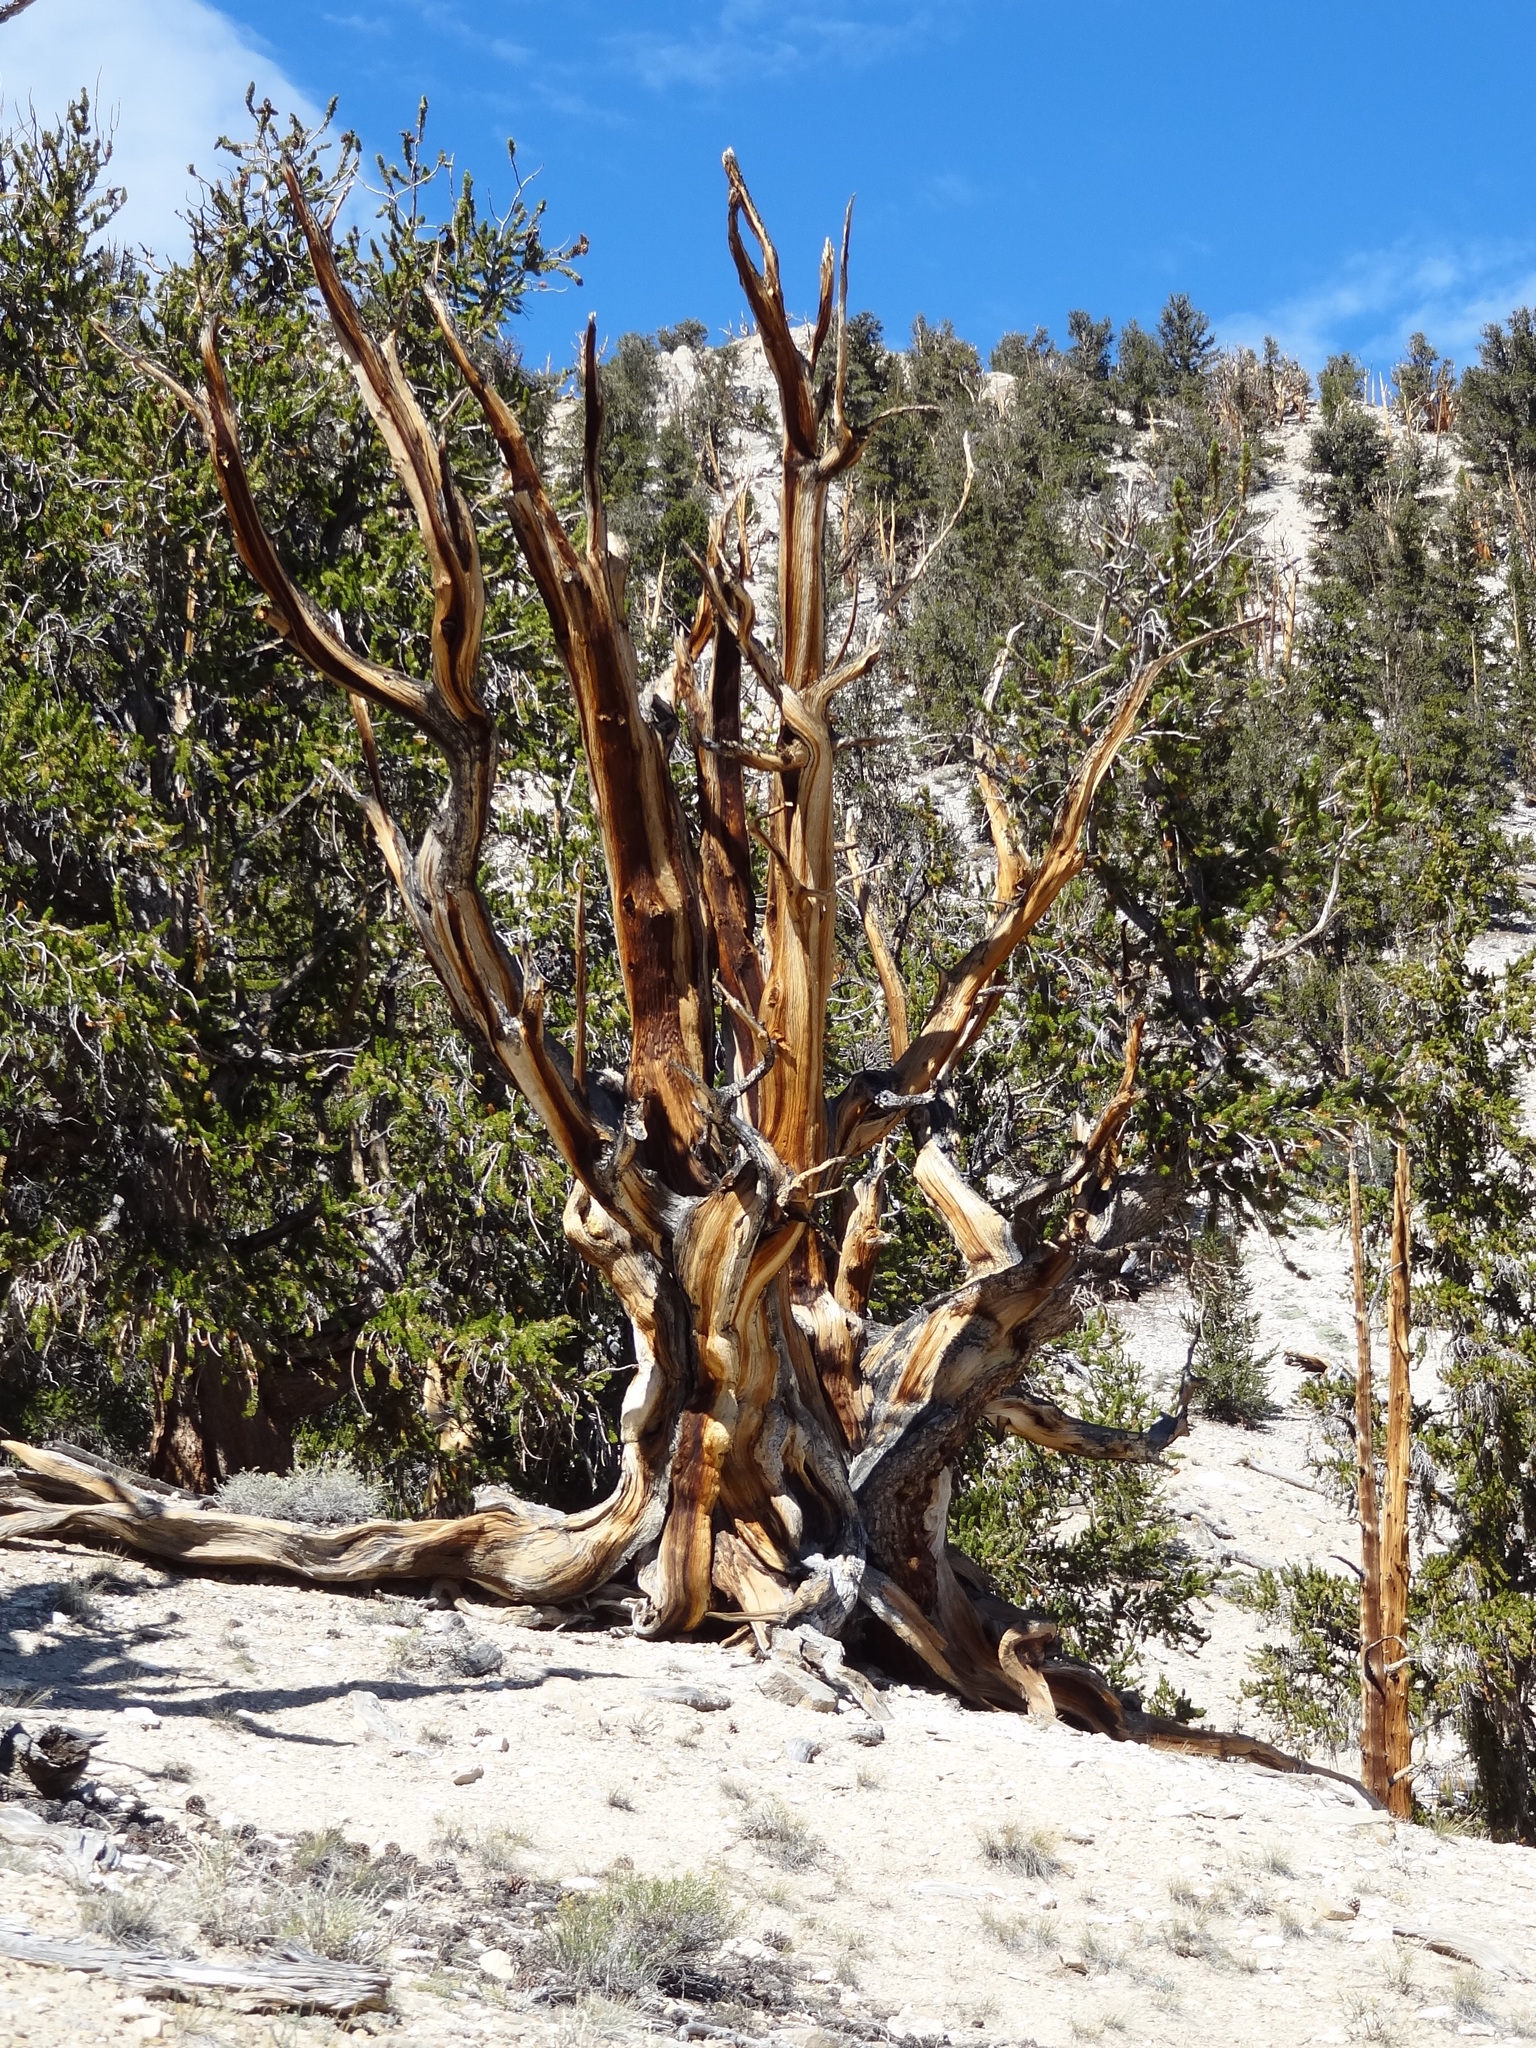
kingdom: Plantae
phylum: Tracheophyta
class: Pinopsida
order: Pinales
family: Pinaceae
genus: Pinus
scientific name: Pinus longaeva
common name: Intermountain bristlecone pine
